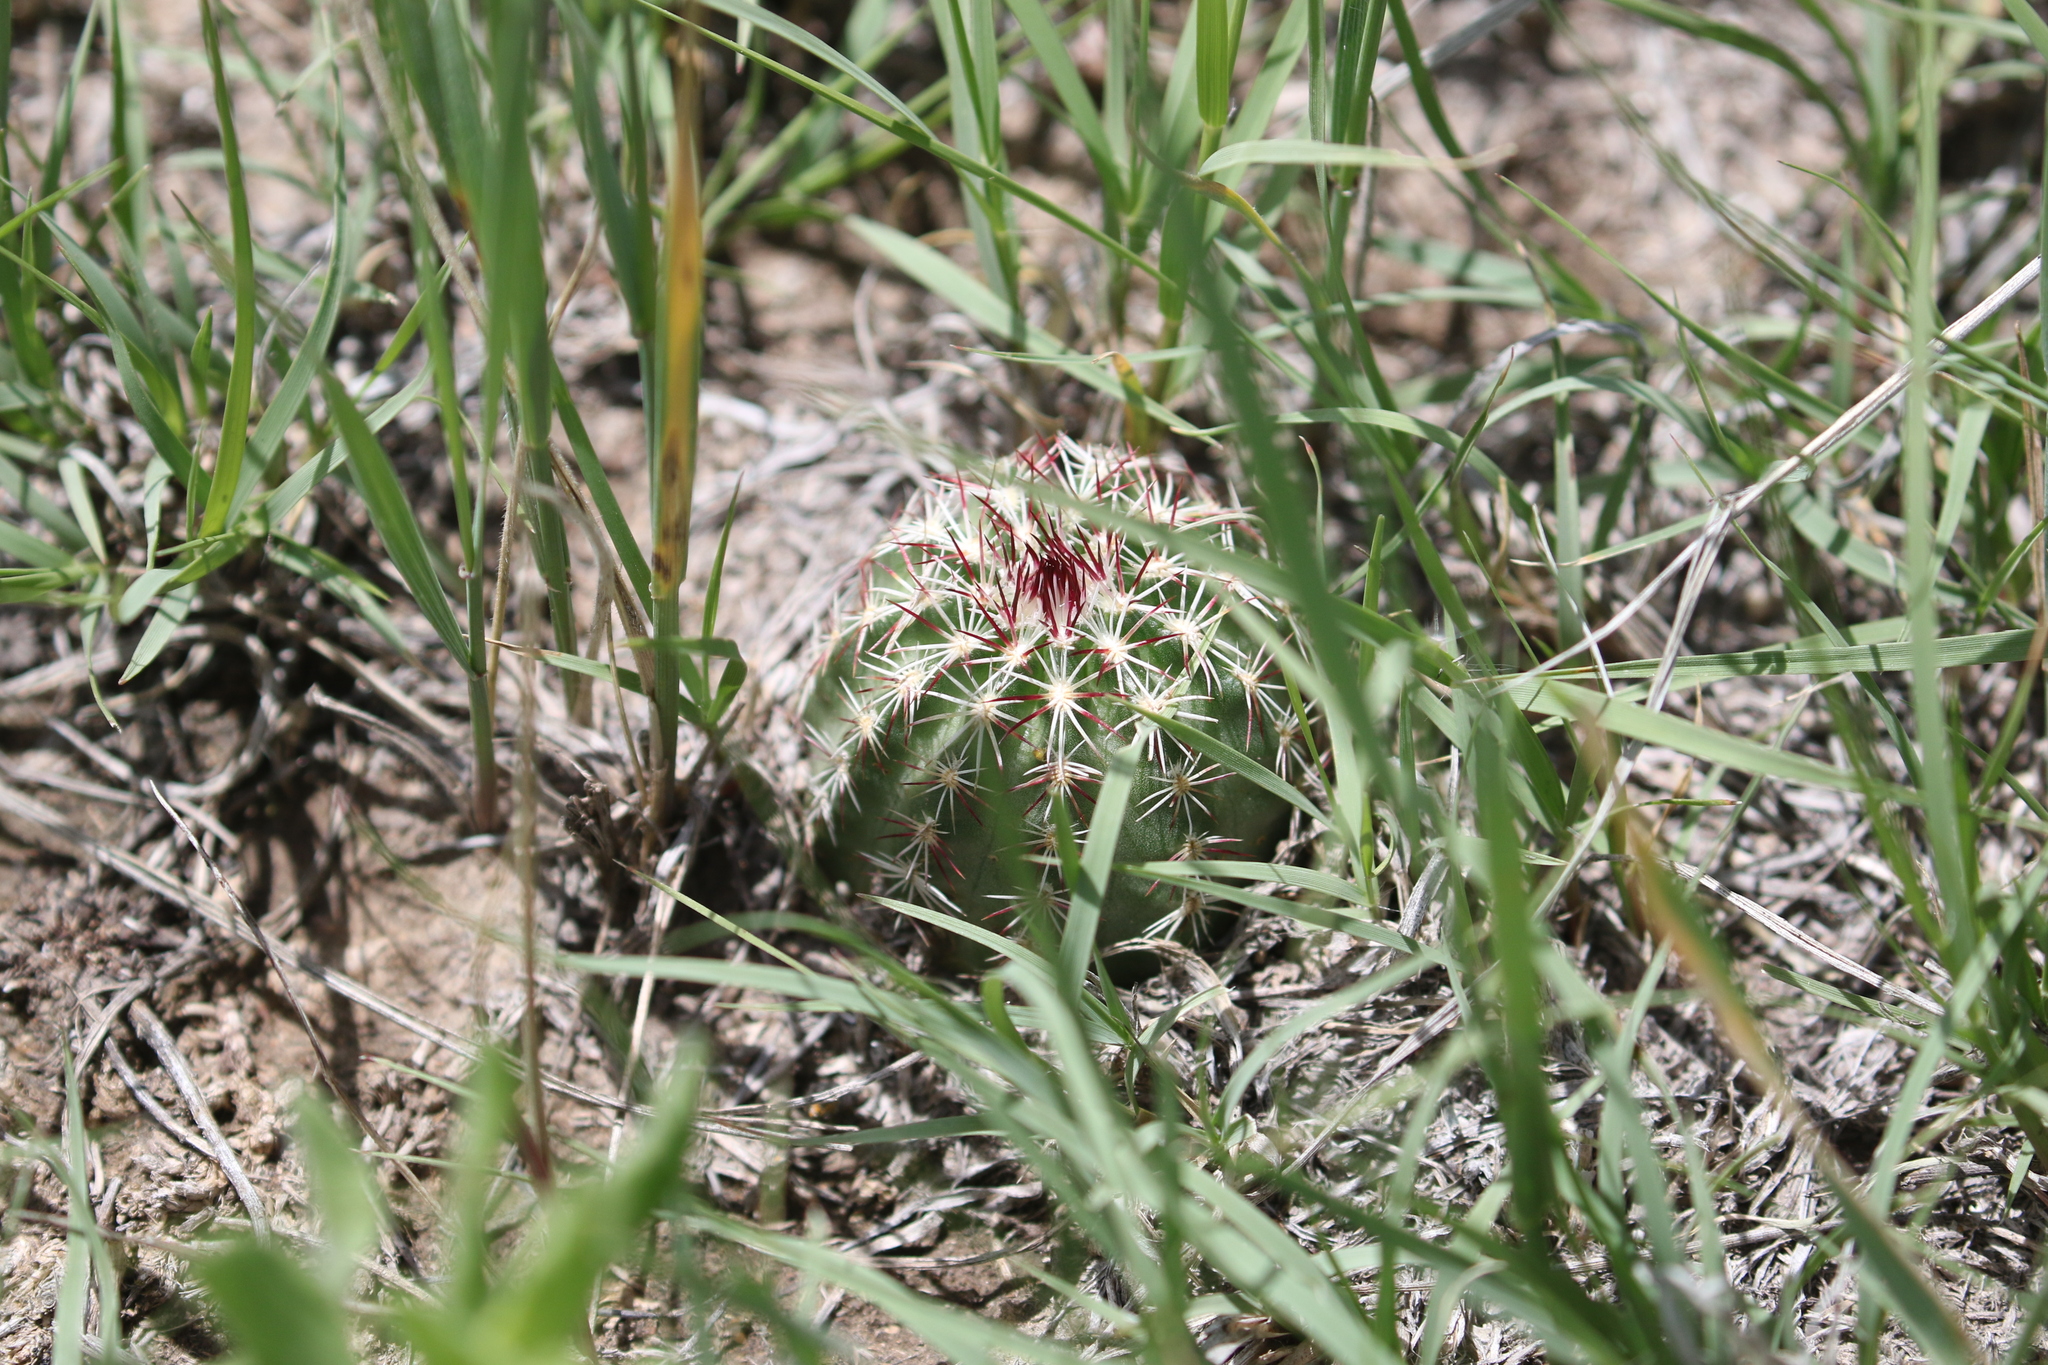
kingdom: Plantae
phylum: Tracheophyta
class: Magnoliopsida
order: Caryophyllales
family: Cactaceae
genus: Echinocereus
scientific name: Echinocereus viridiflorus
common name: Nylon hedgehog cactus
